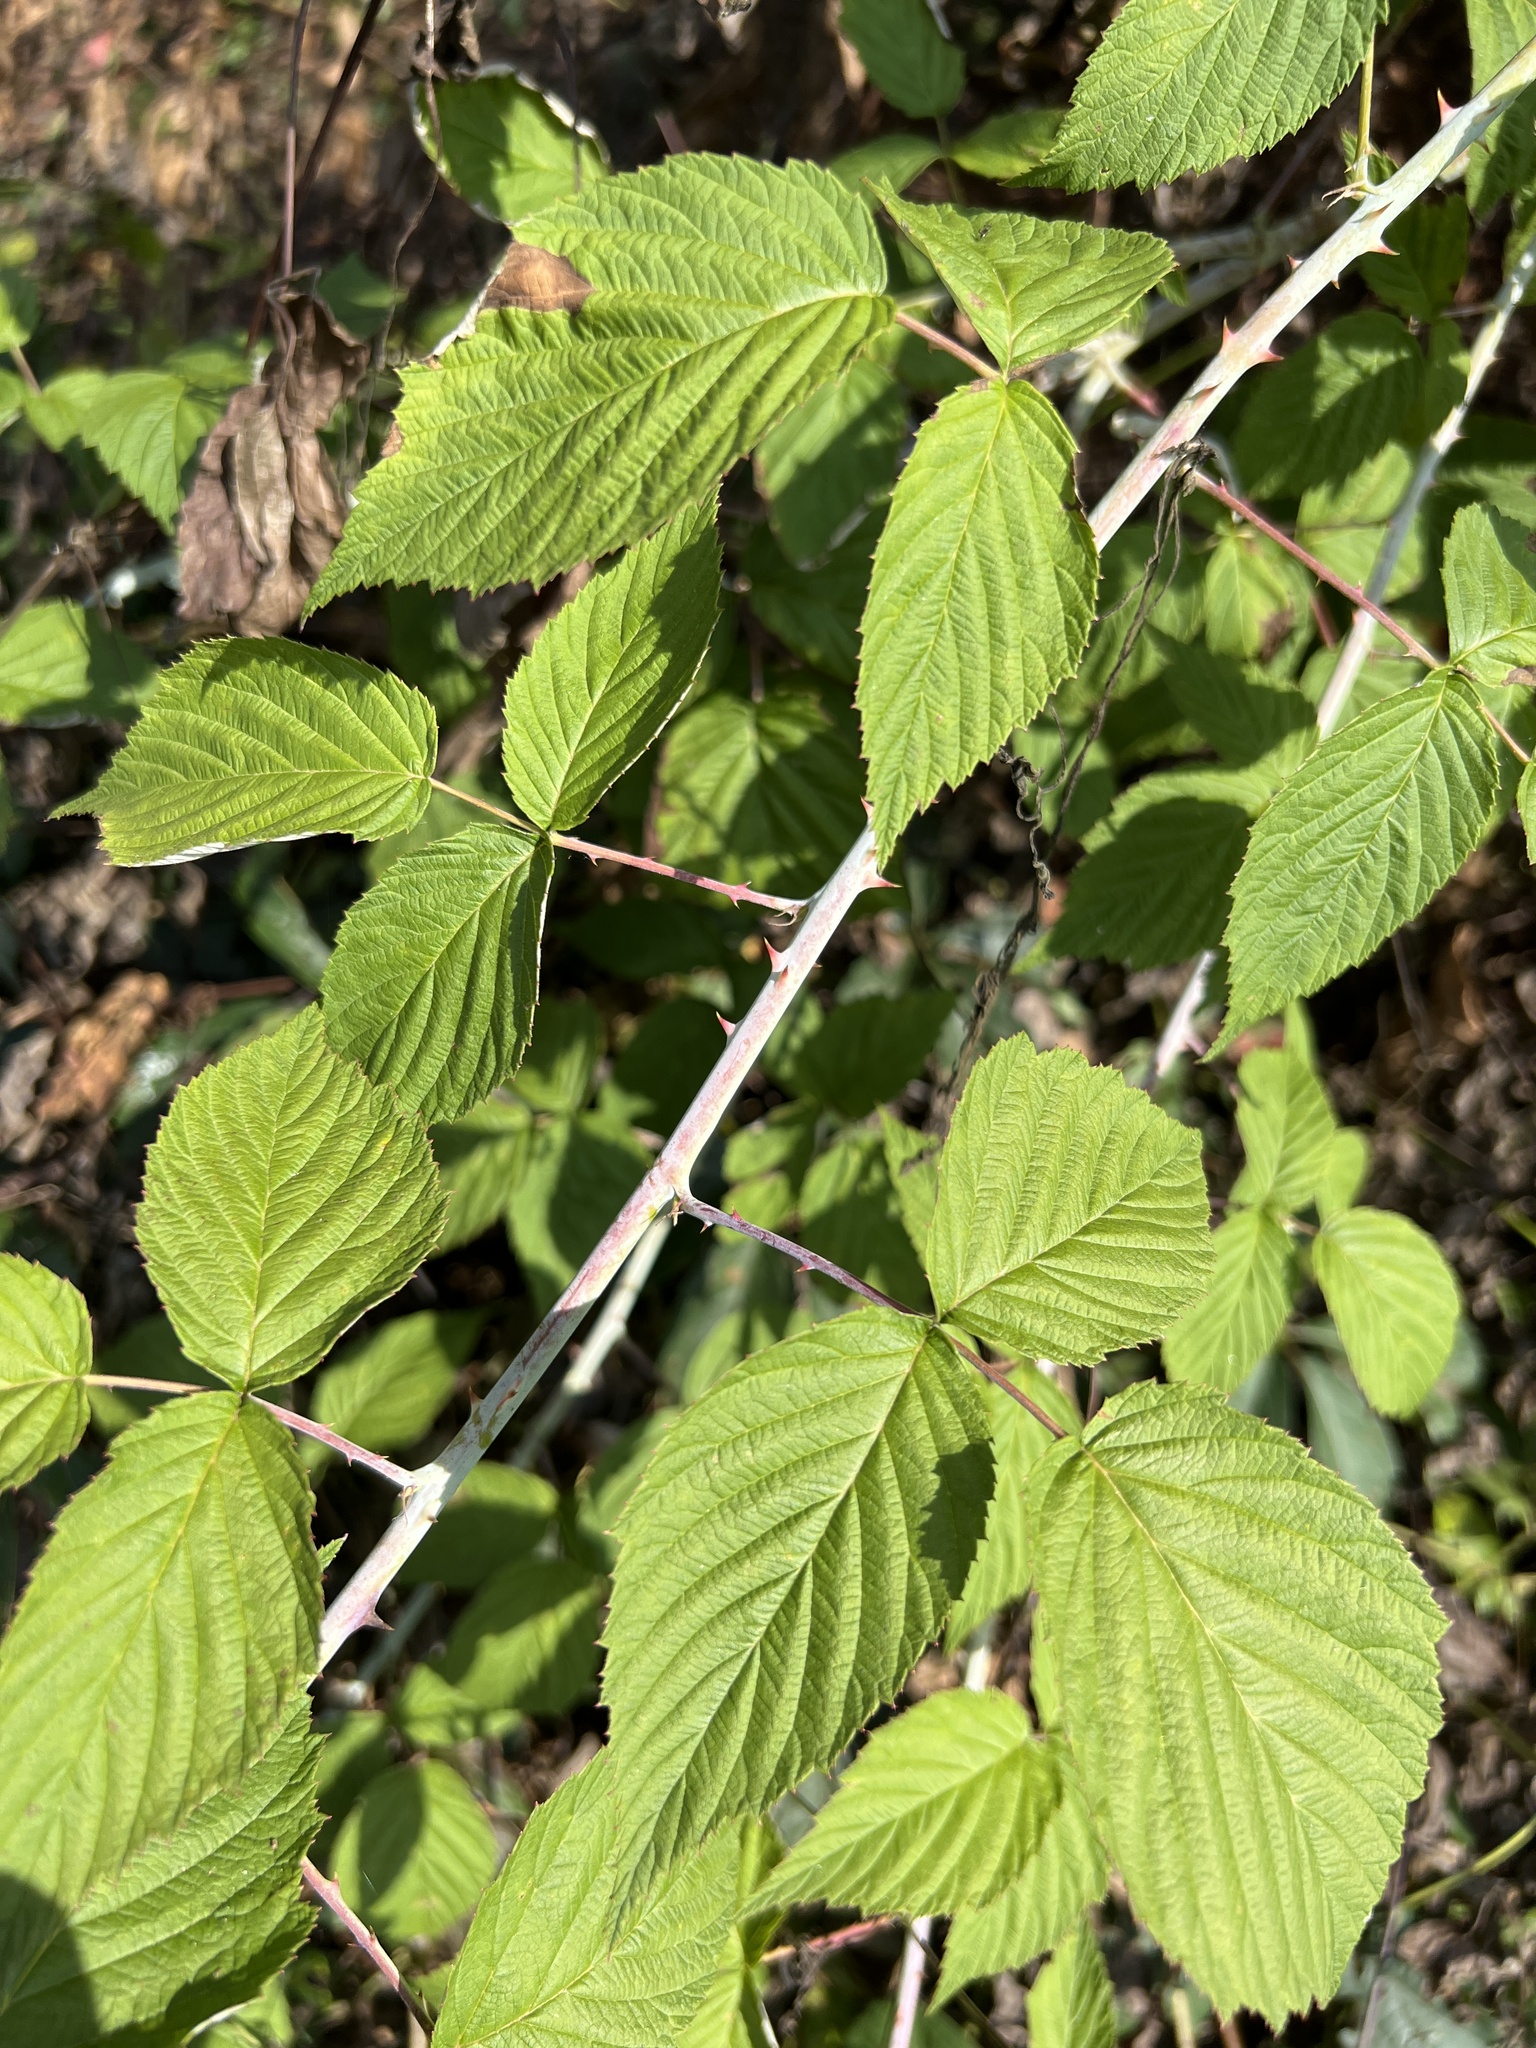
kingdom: Plantae
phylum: Tracheophyta
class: Magnoliopsida
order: Rosales
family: Rosaceae
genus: Rubus
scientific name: Rubus occidentalis
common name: Black raspberry
